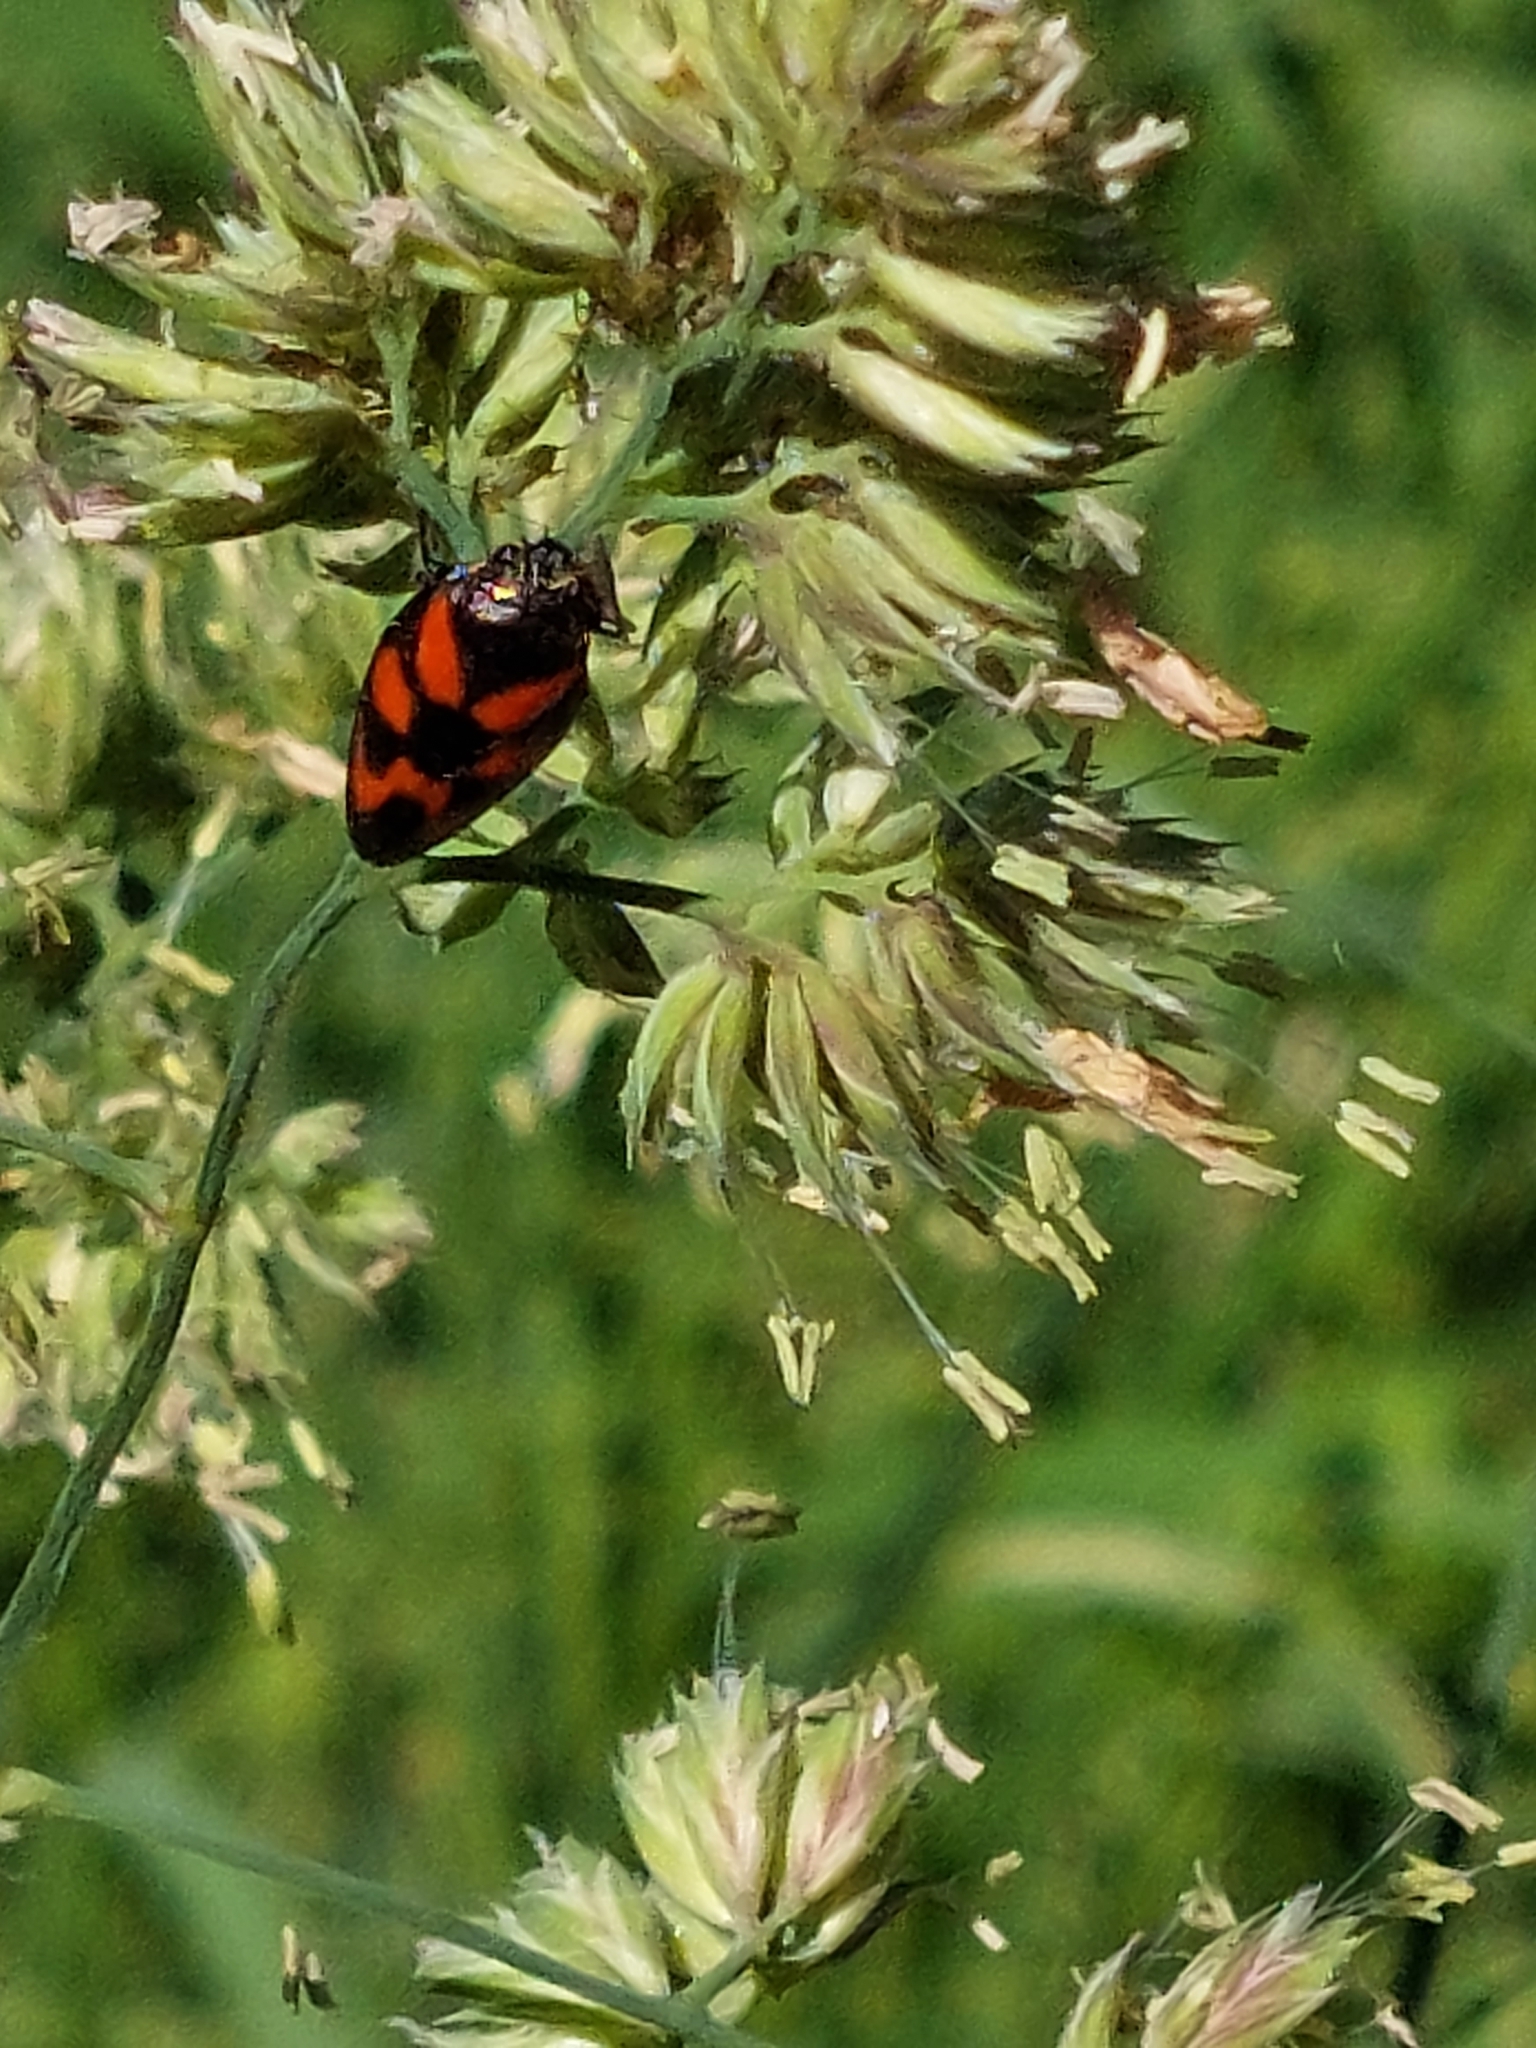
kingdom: Animalia
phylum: Arthropoda
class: Insecta
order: Hemiptera
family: Cercopidae
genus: Cercopis
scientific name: Cercopis vulnerata
